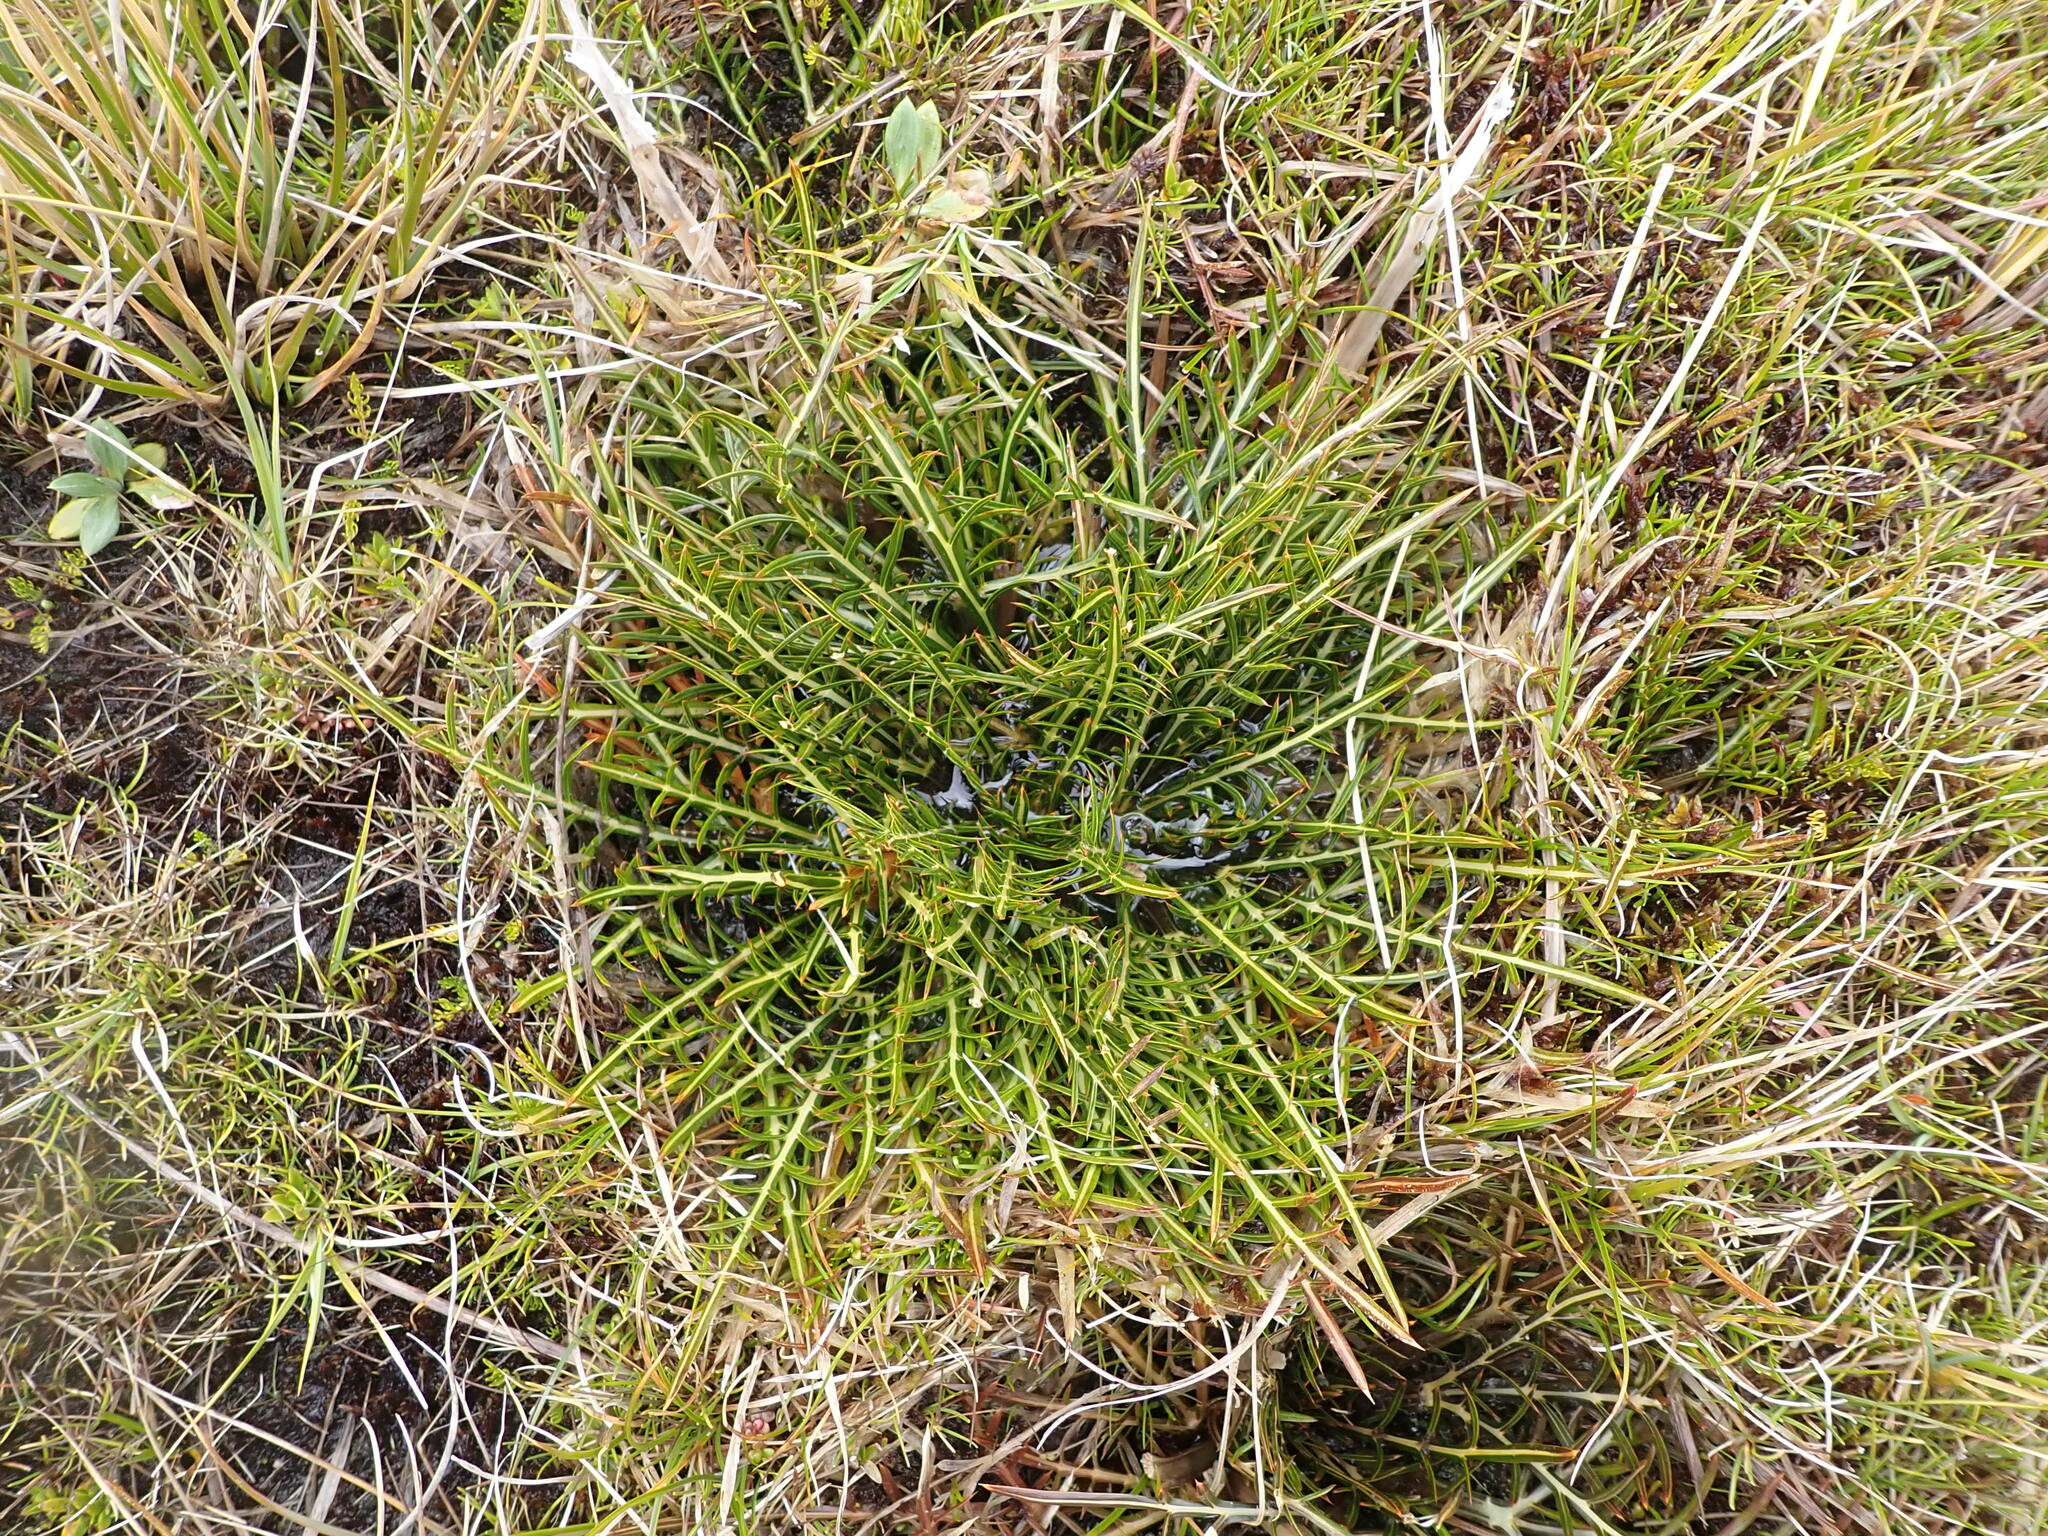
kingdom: Plantae
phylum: Tracheophyta
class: Magnoliopsida
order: Apiales
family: Apiaceae
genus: Aciphylla
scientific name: Aciphylla pinnatifida
